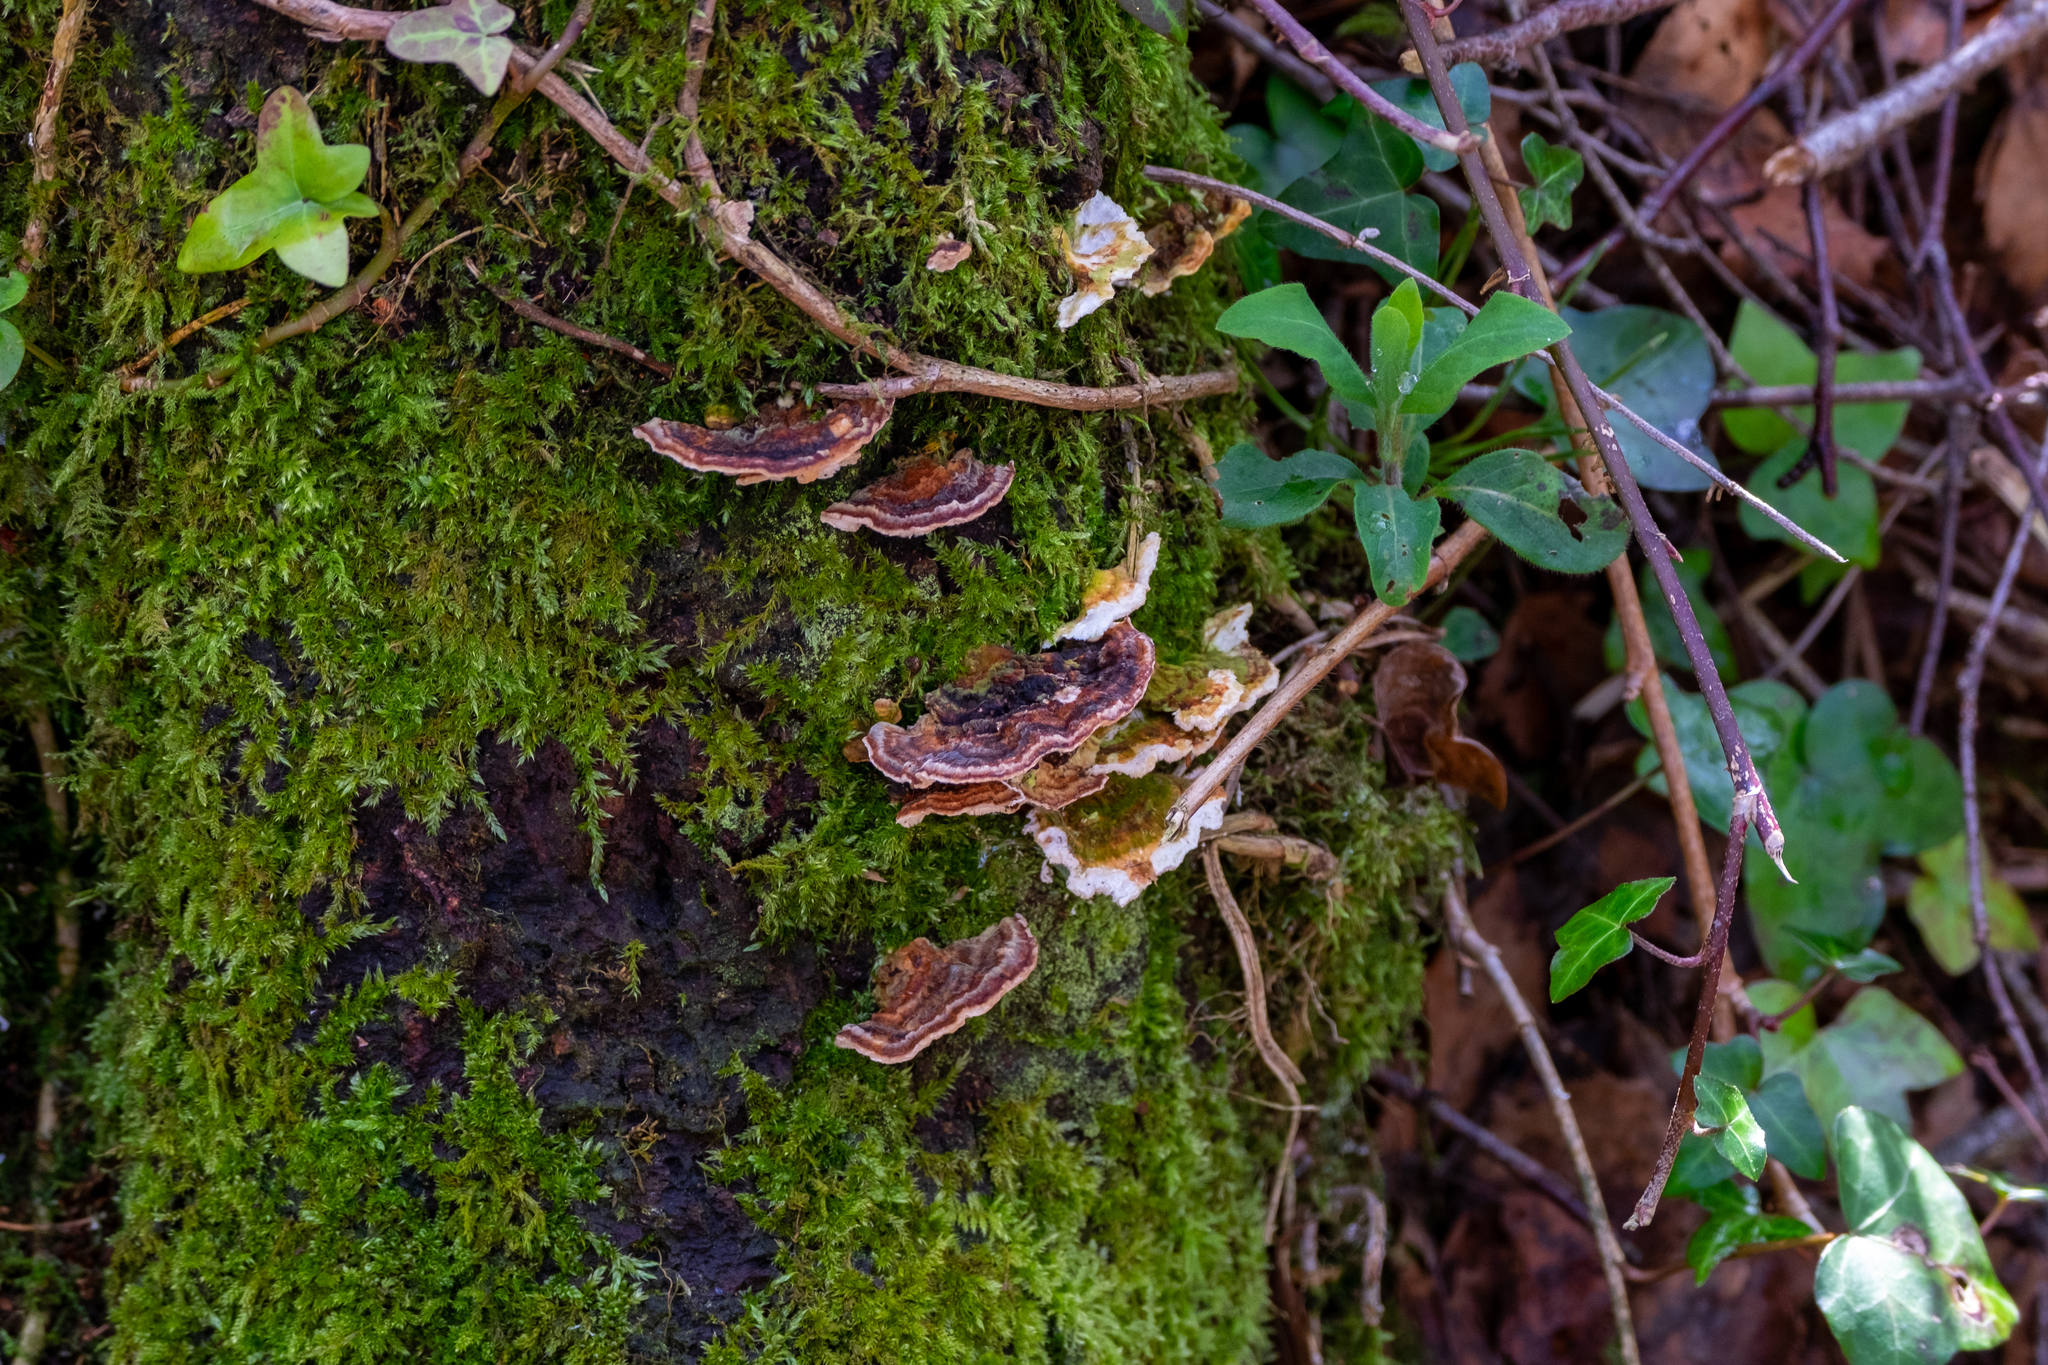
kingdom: Fungi
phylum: Basidiomycota
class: Agaricomycetes
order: Polyporales
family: Polyporaceae
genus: Trametes
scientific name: Trametes versicolor
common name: Turkeytail
